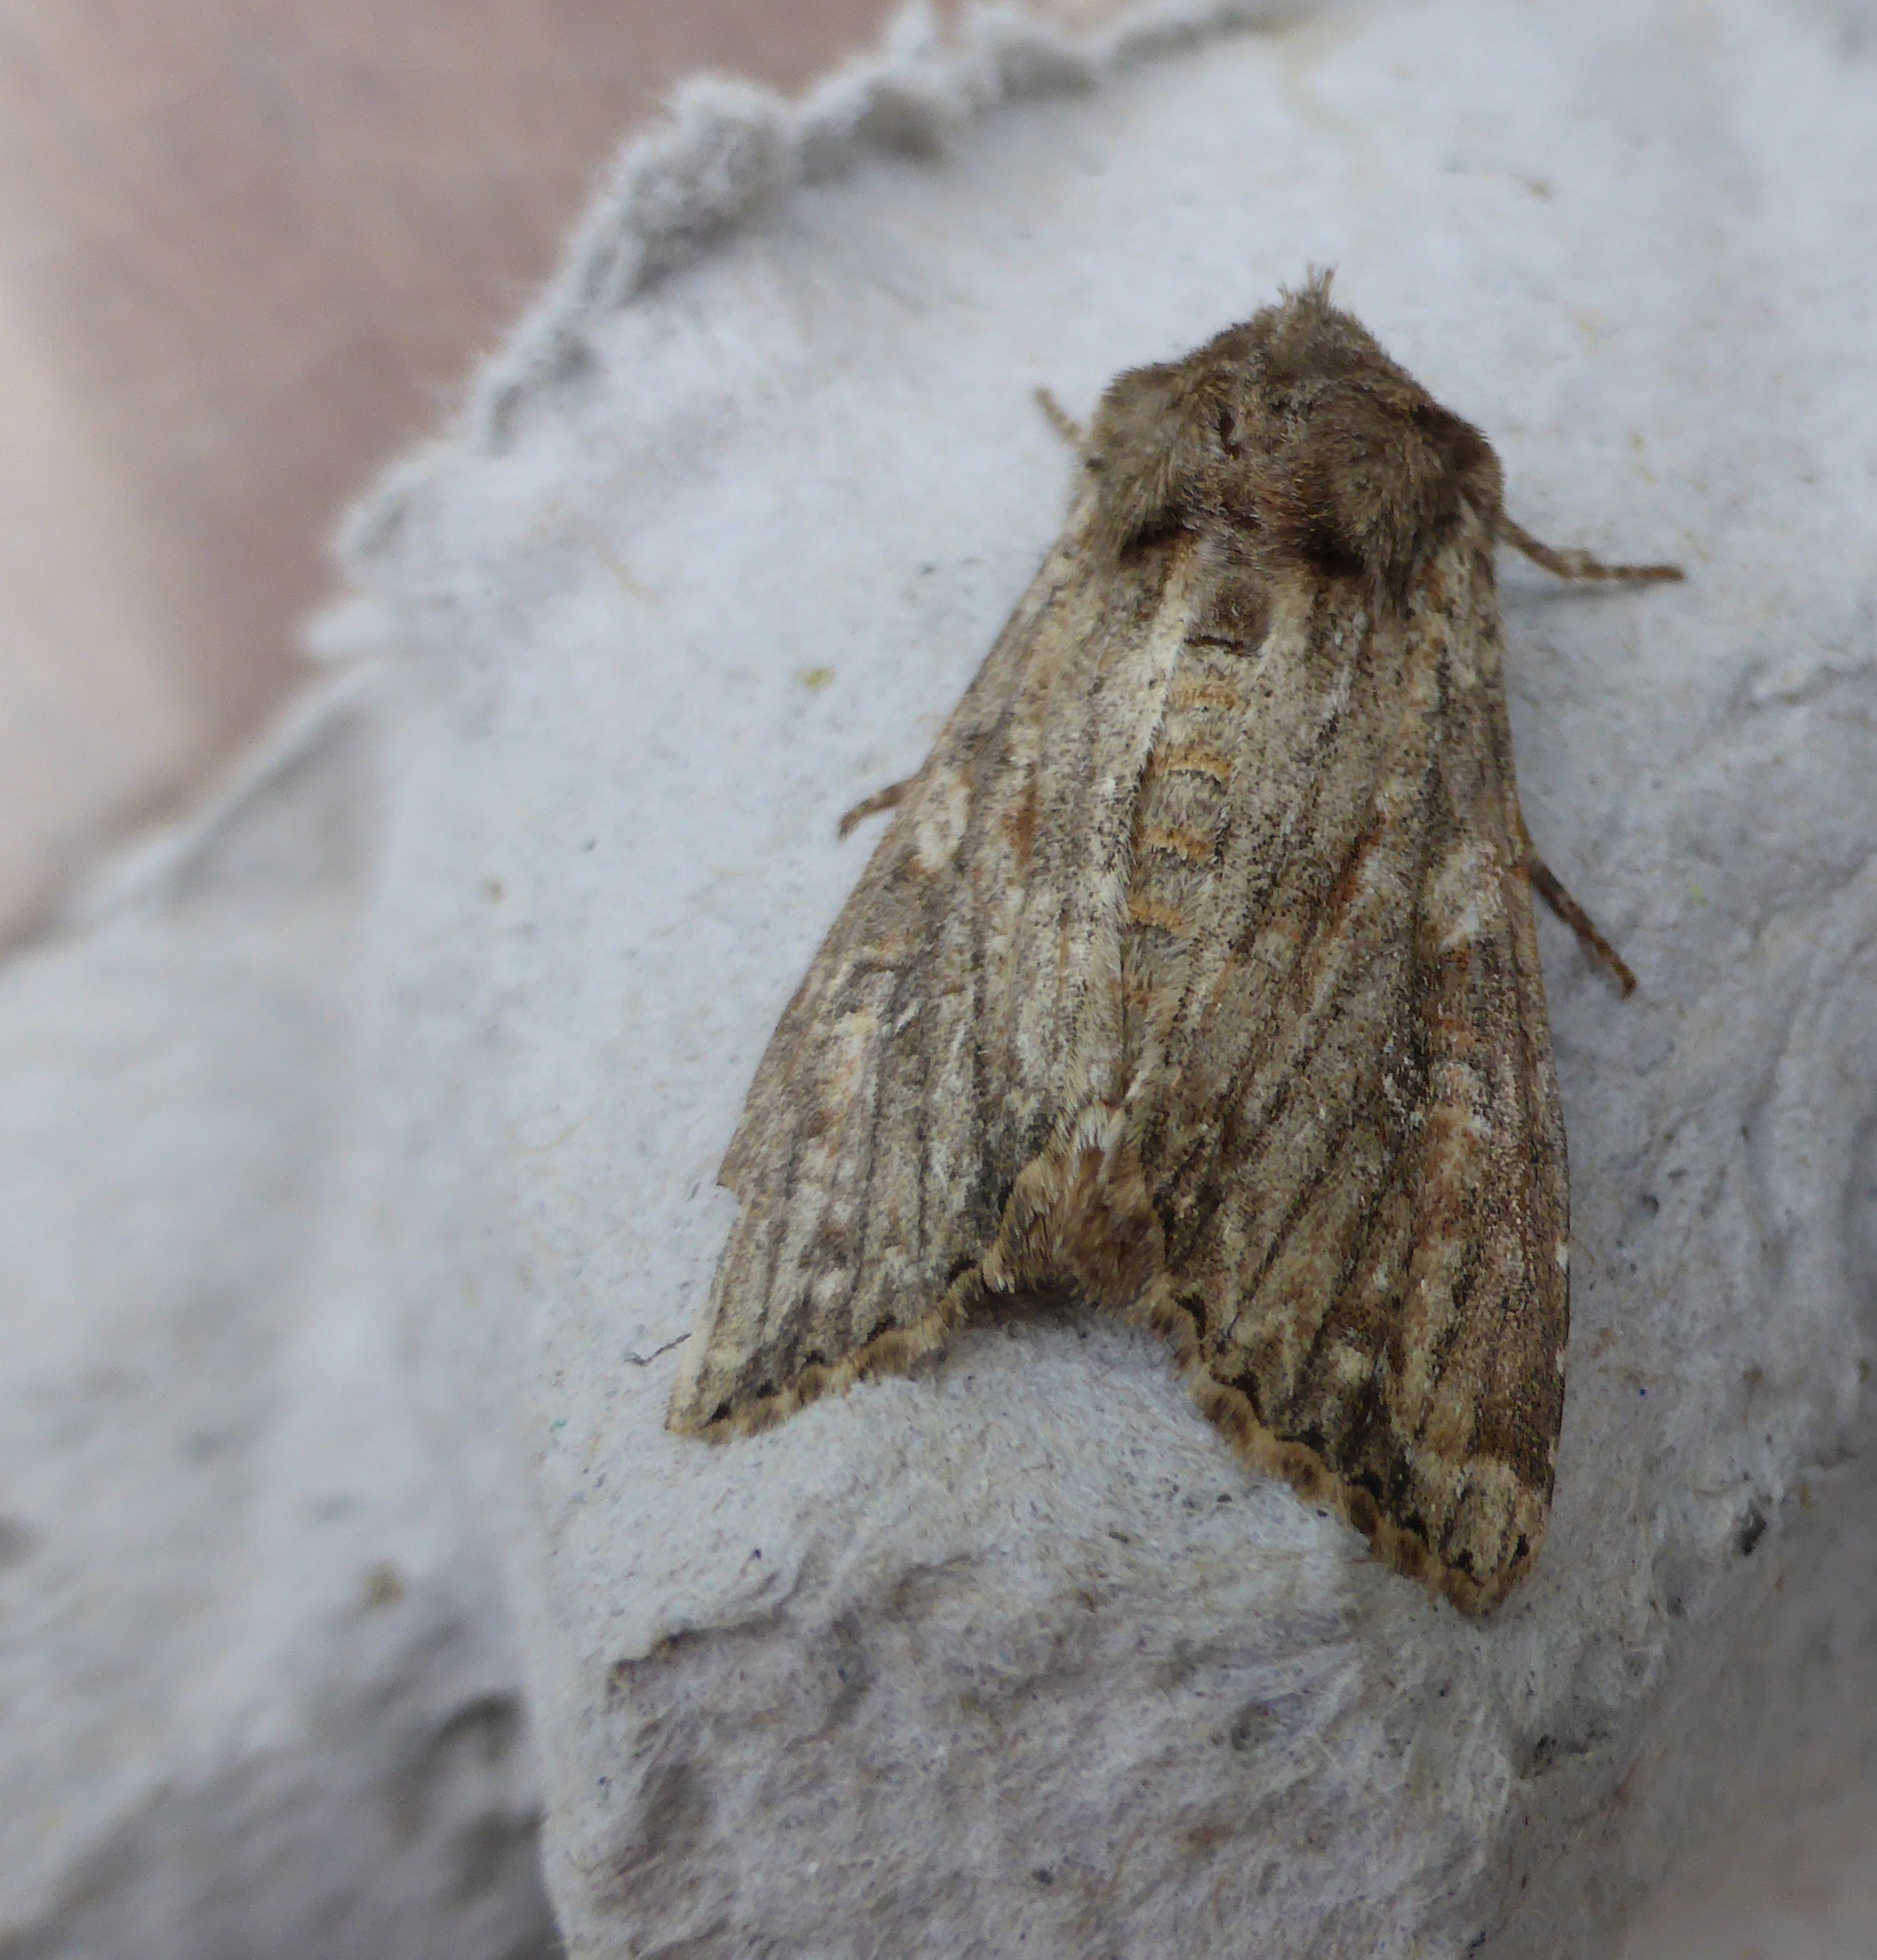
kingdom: Animalia
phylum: Arthropoda
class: Insecta
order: Lepidoptera
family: Noctuidae
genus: Apamea
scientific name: Apamea anceps
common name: Large nutmeg
